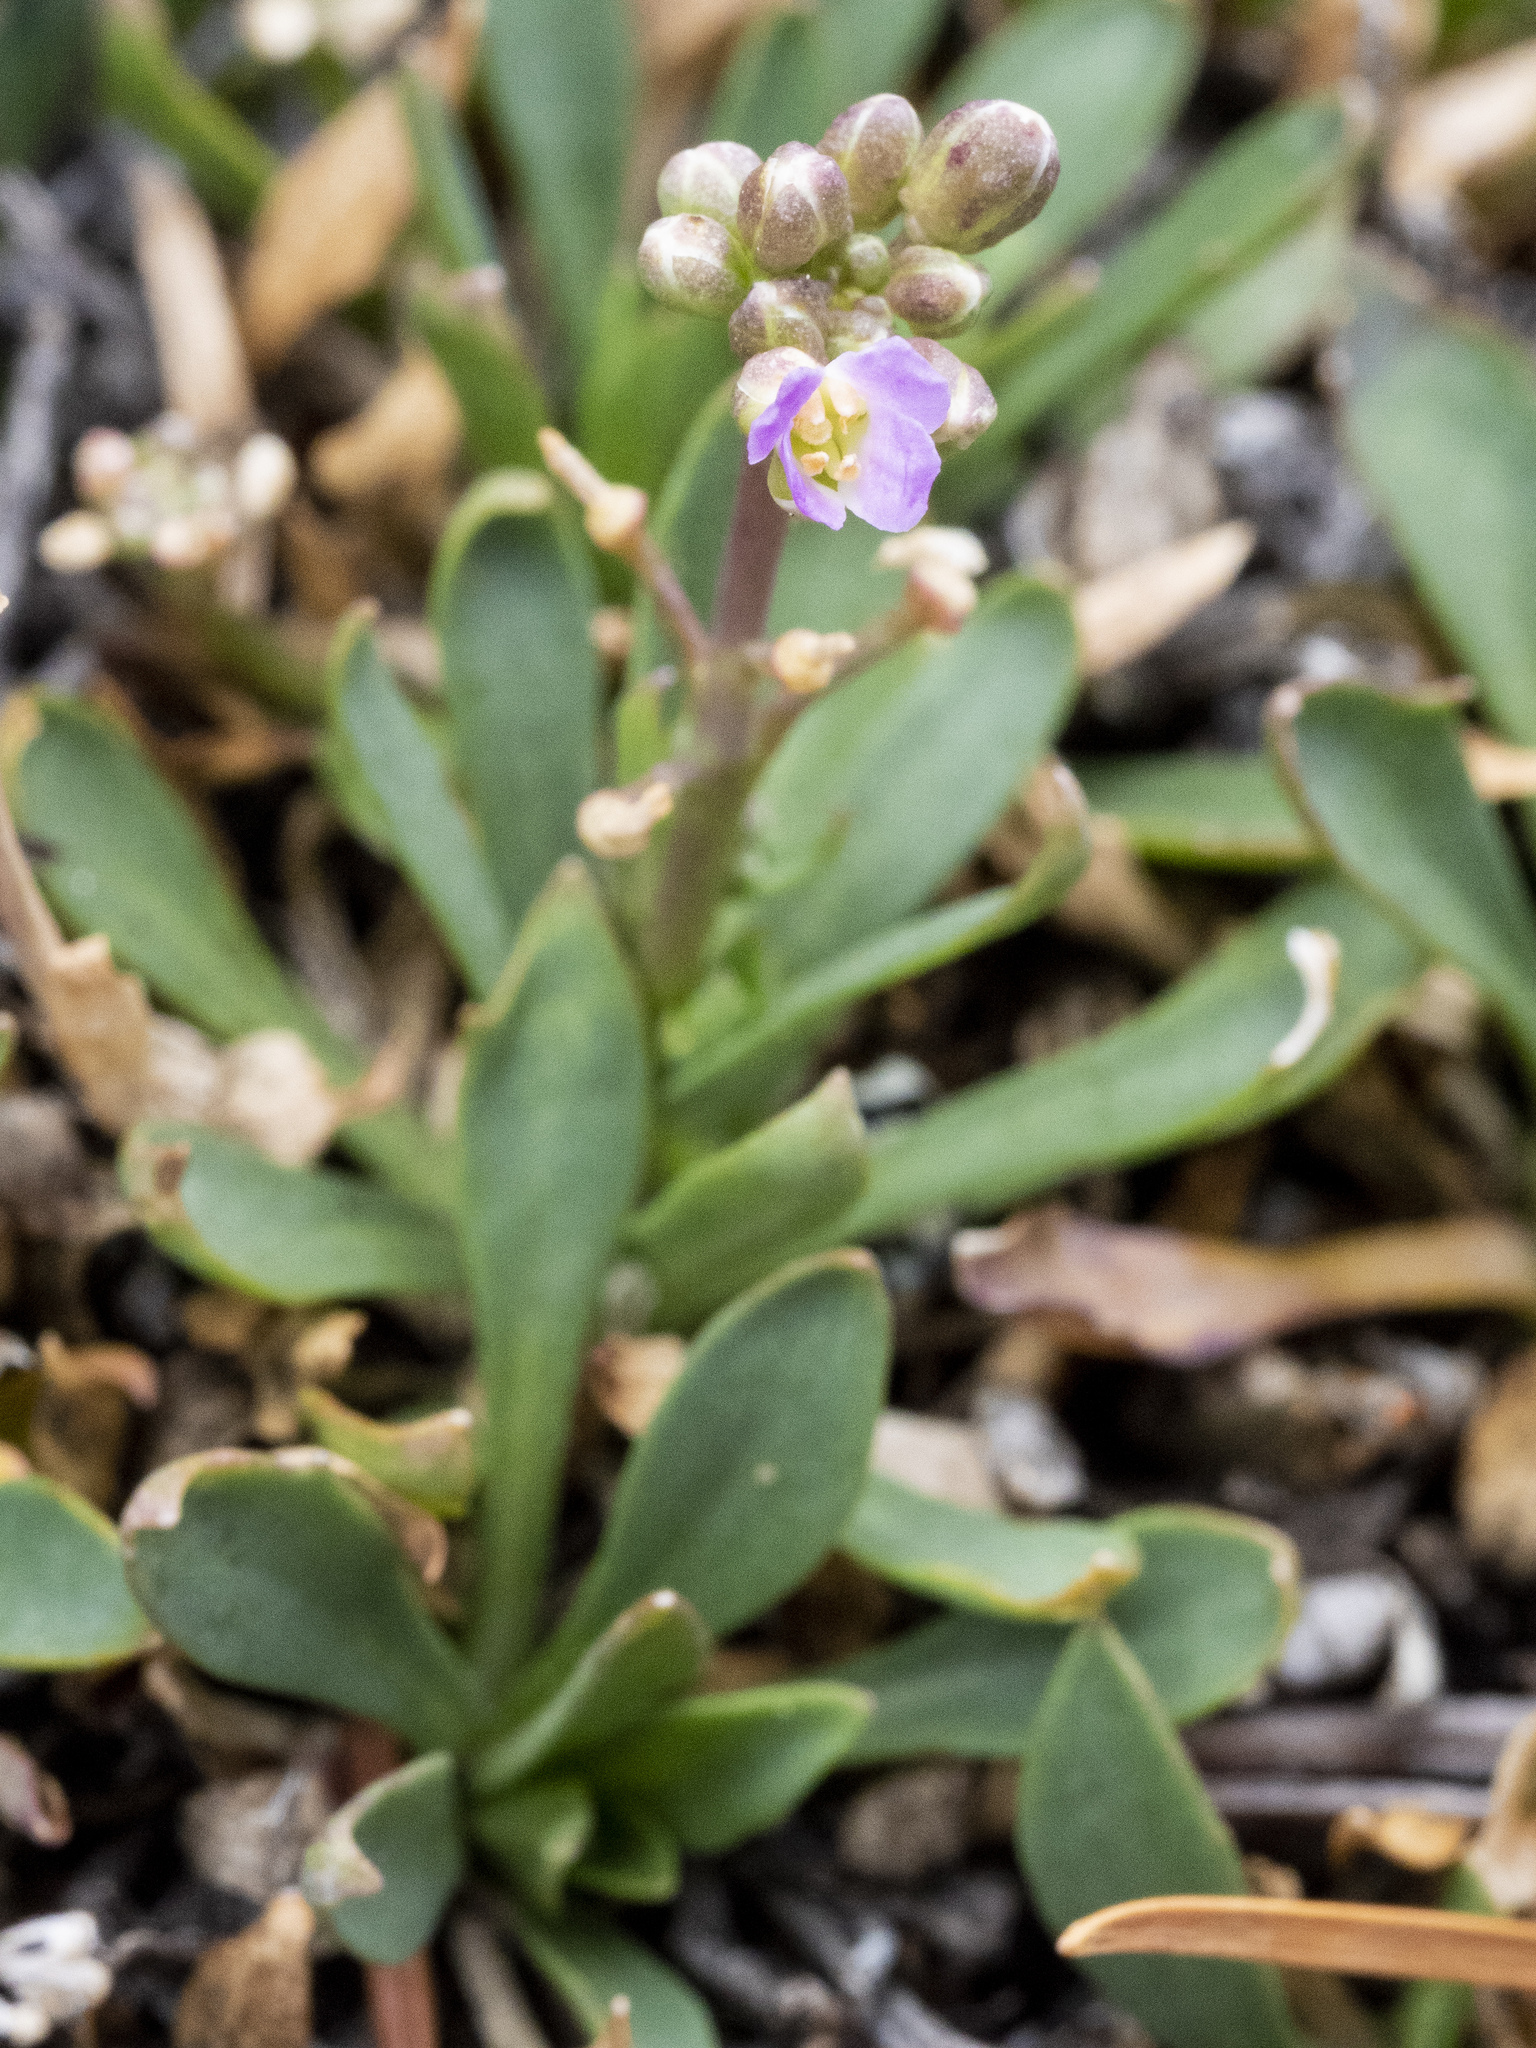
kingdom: Plantae
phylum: Tracheophyta
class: Magnoliopsida
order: Brassicales
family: Brassicaceae
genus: Boechera
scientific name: Boechera tiehmii
